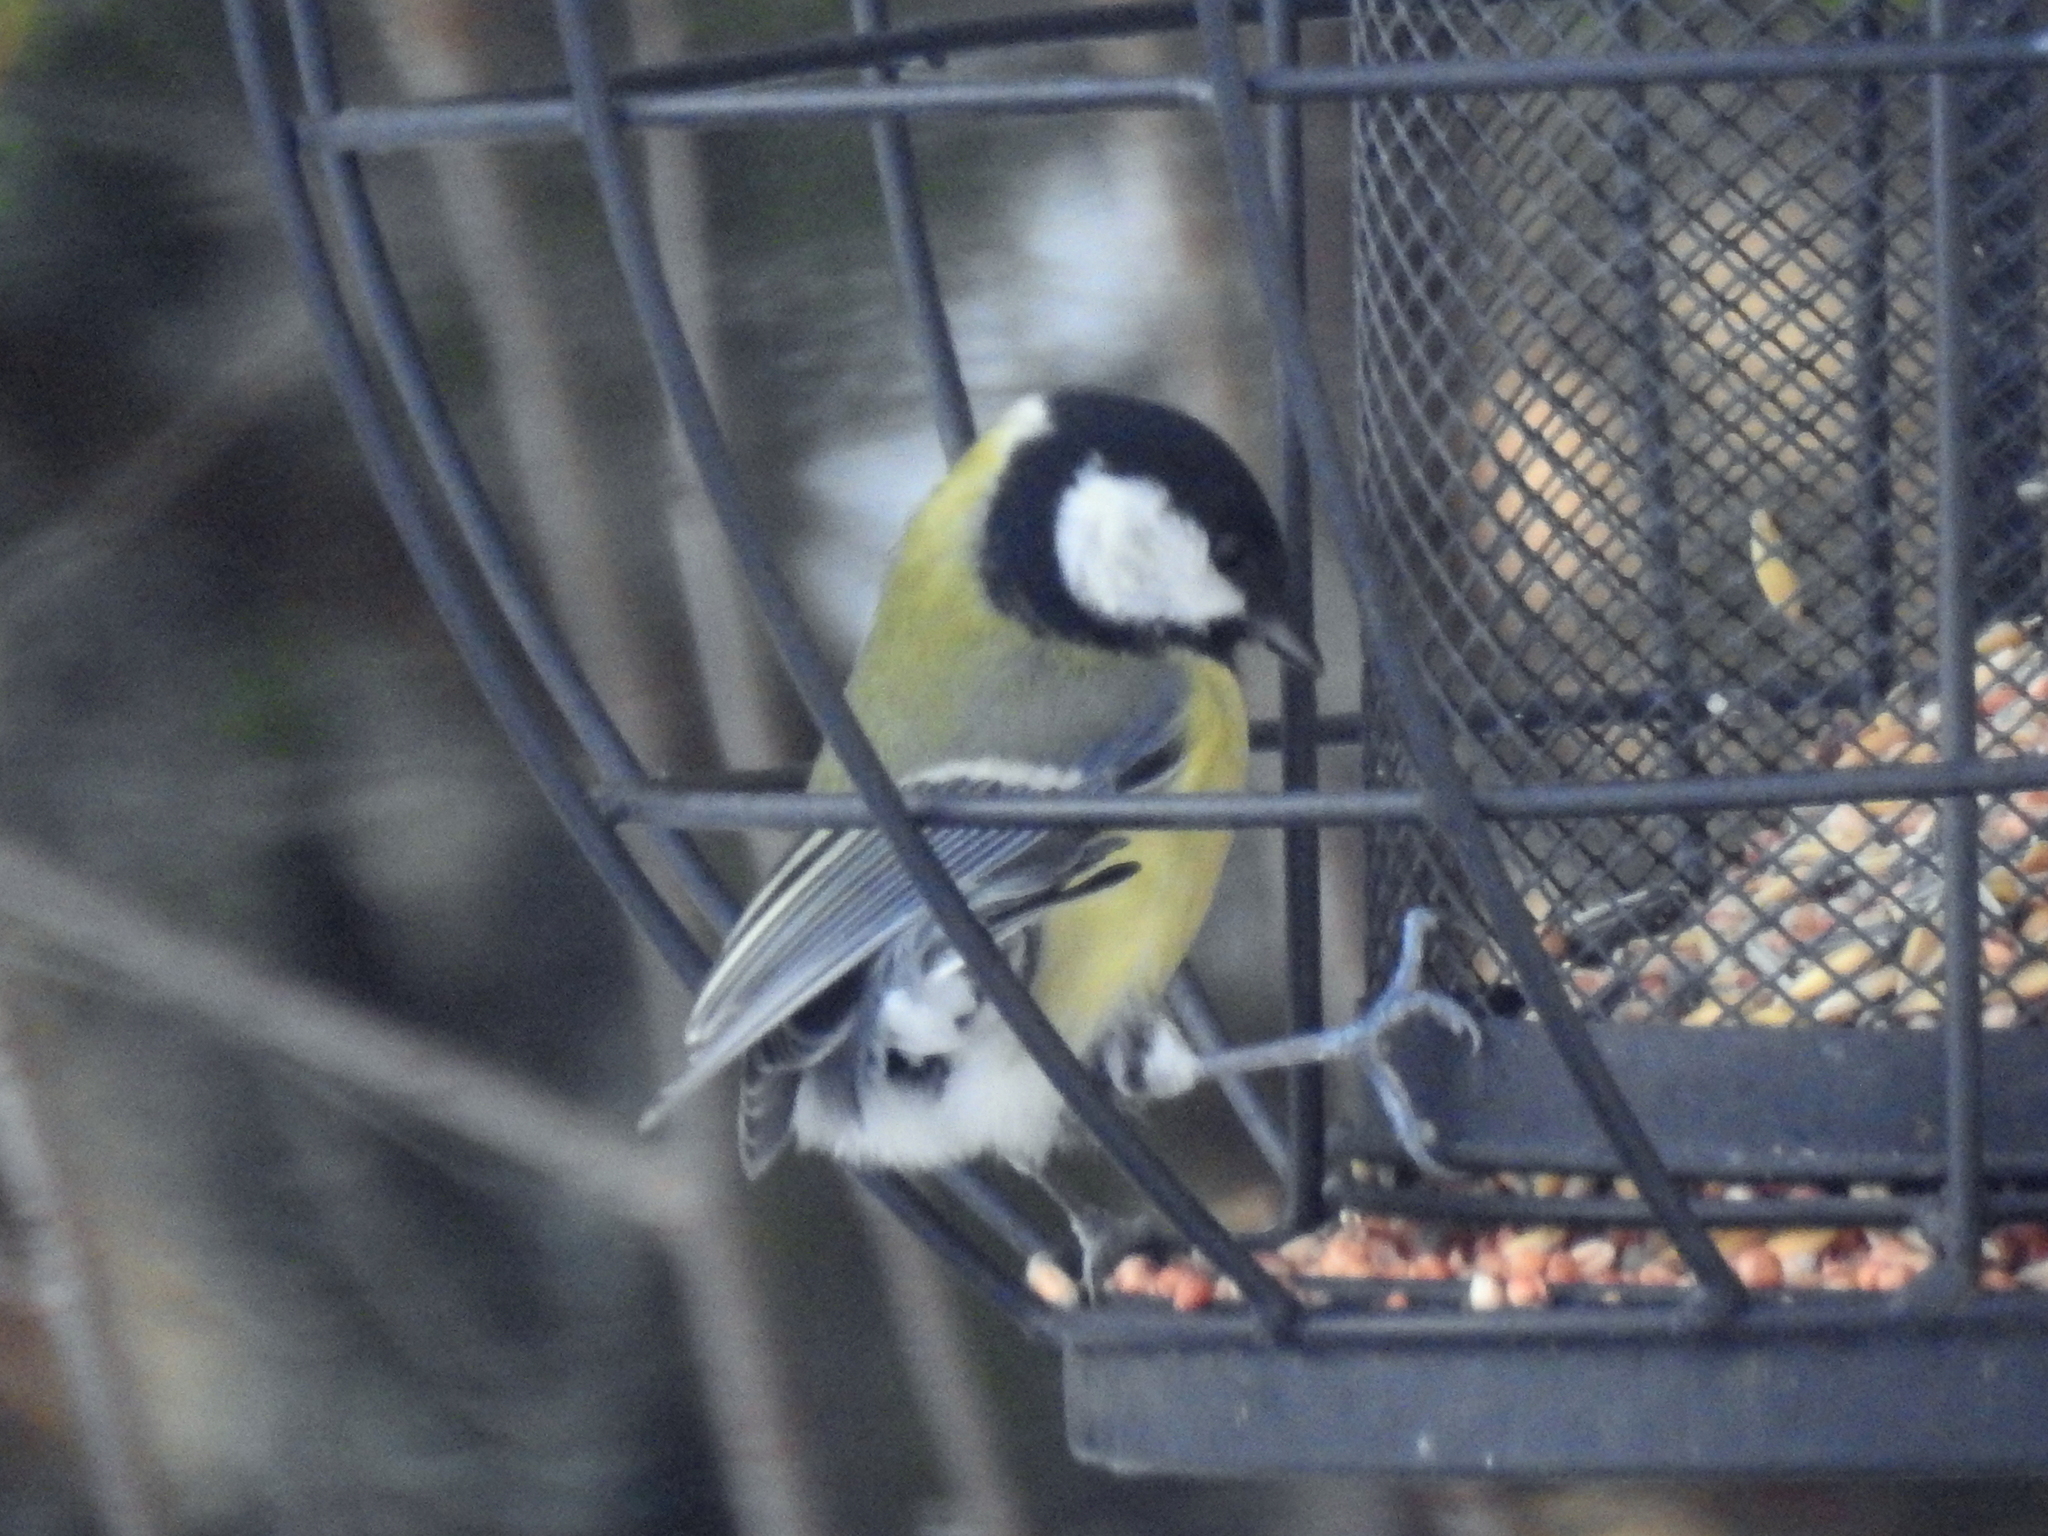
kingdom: Animalia
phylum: Chordata
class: Aves
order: Passeriformes
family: Paridae
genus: Parus
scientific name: Parus major
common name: Great tit
